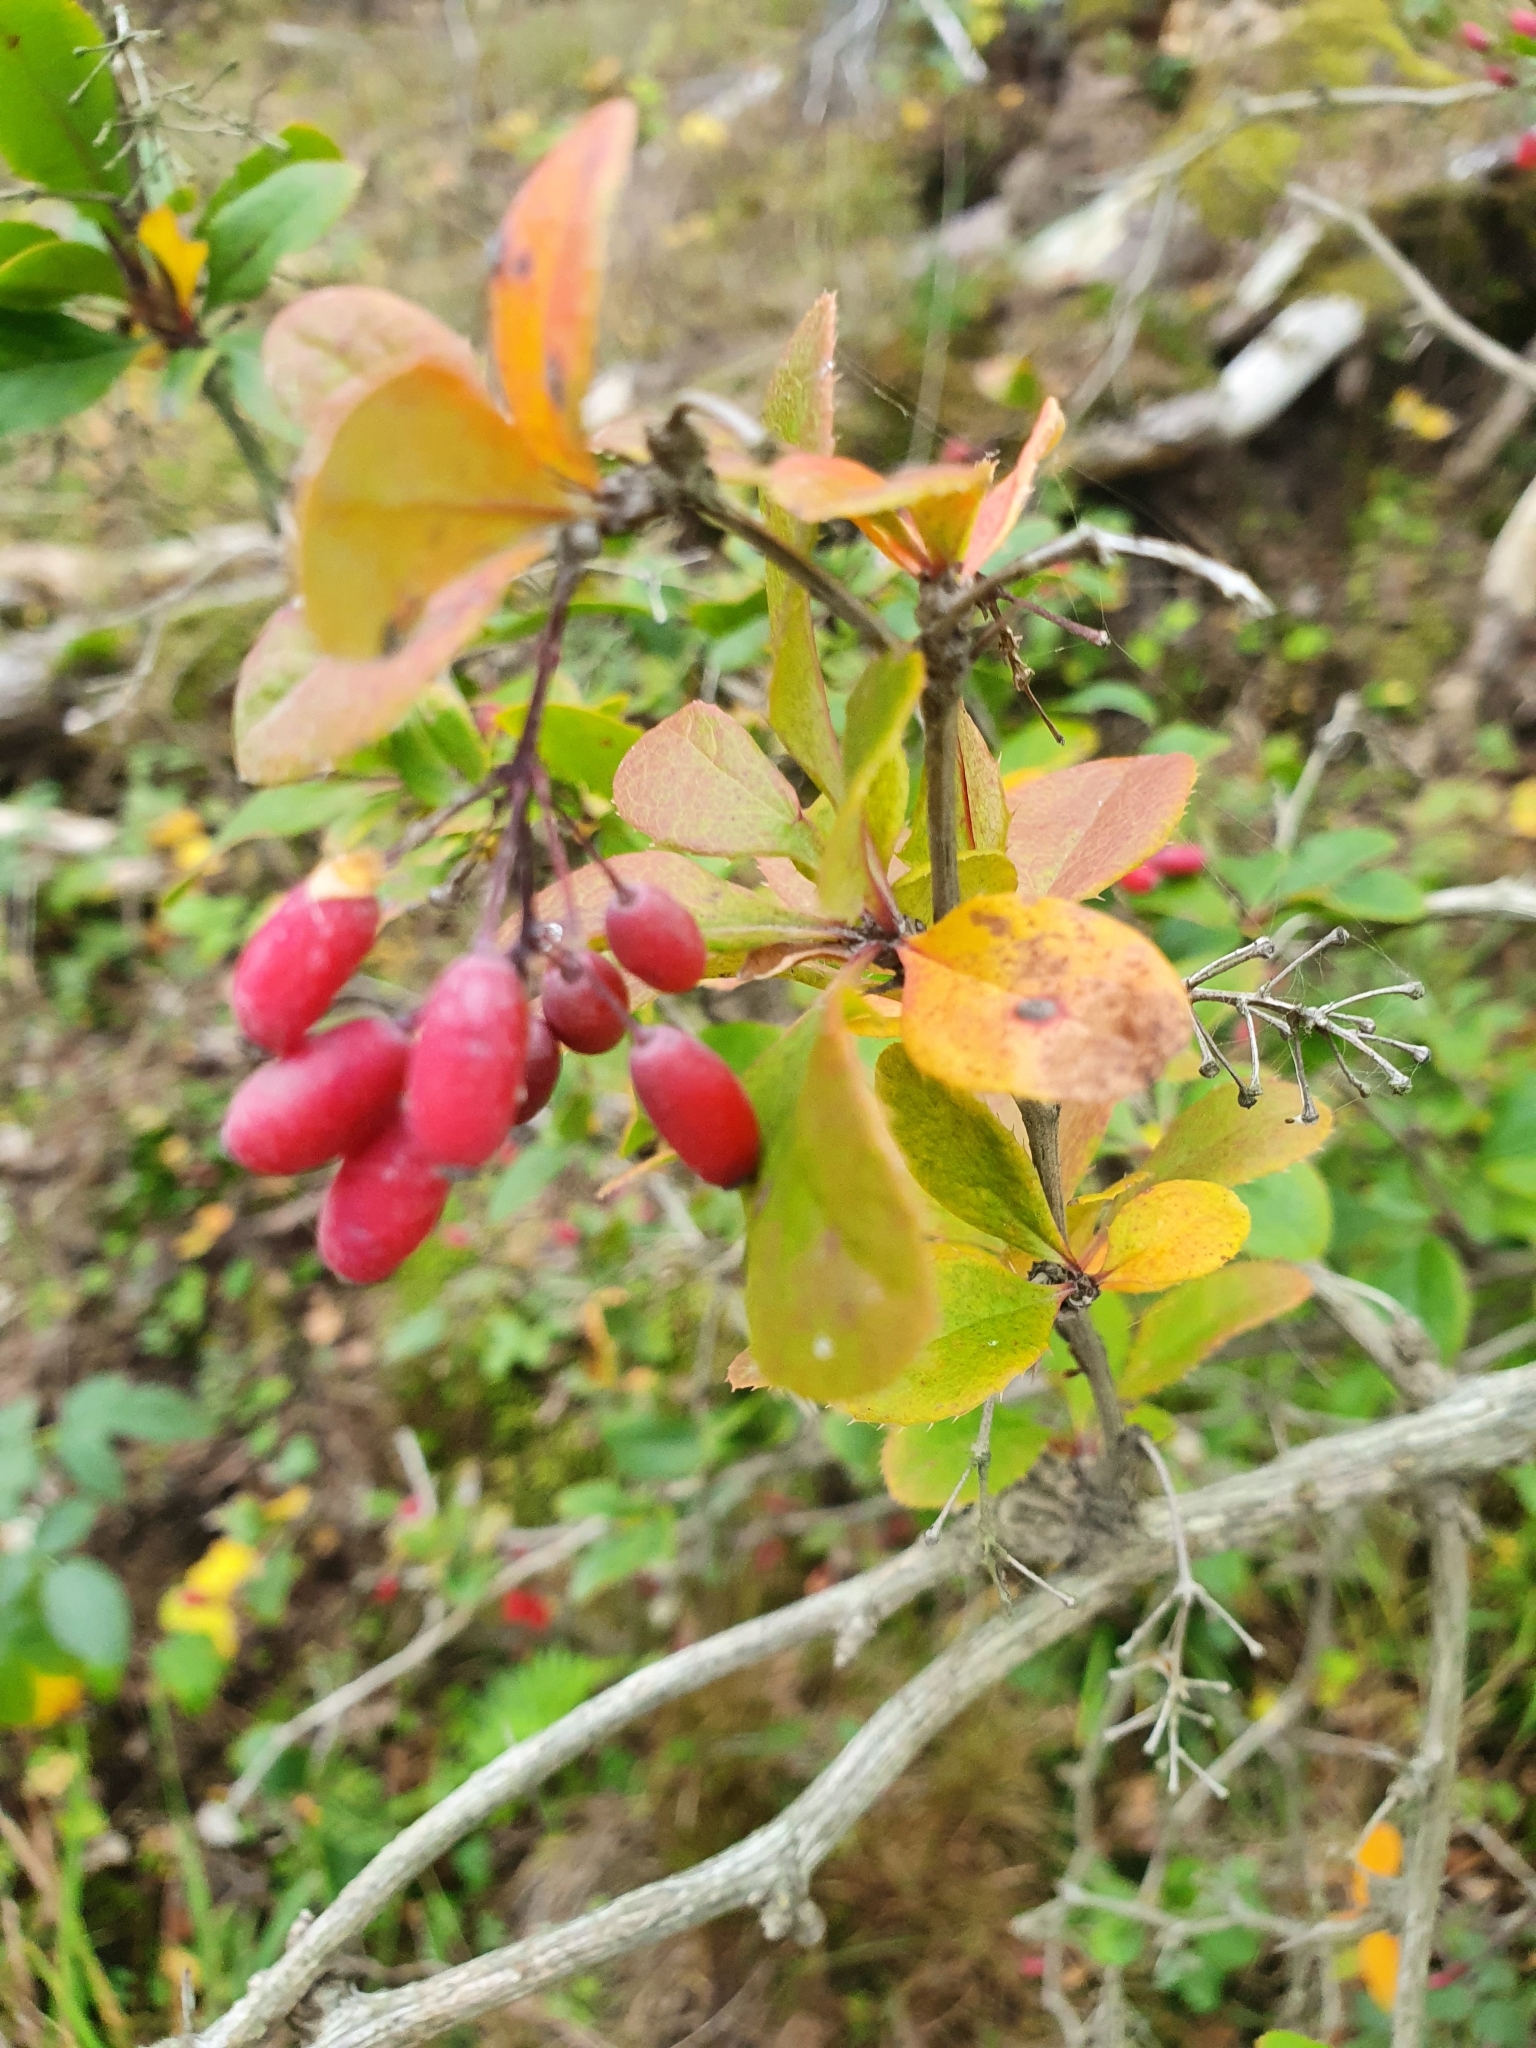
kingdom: Plantae
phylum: Tracheophyta
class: Magnoliopsida
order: Ranunculales
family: Berberidaceae
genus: Berberis
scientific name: Berberis vulgaris
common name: Barberry
